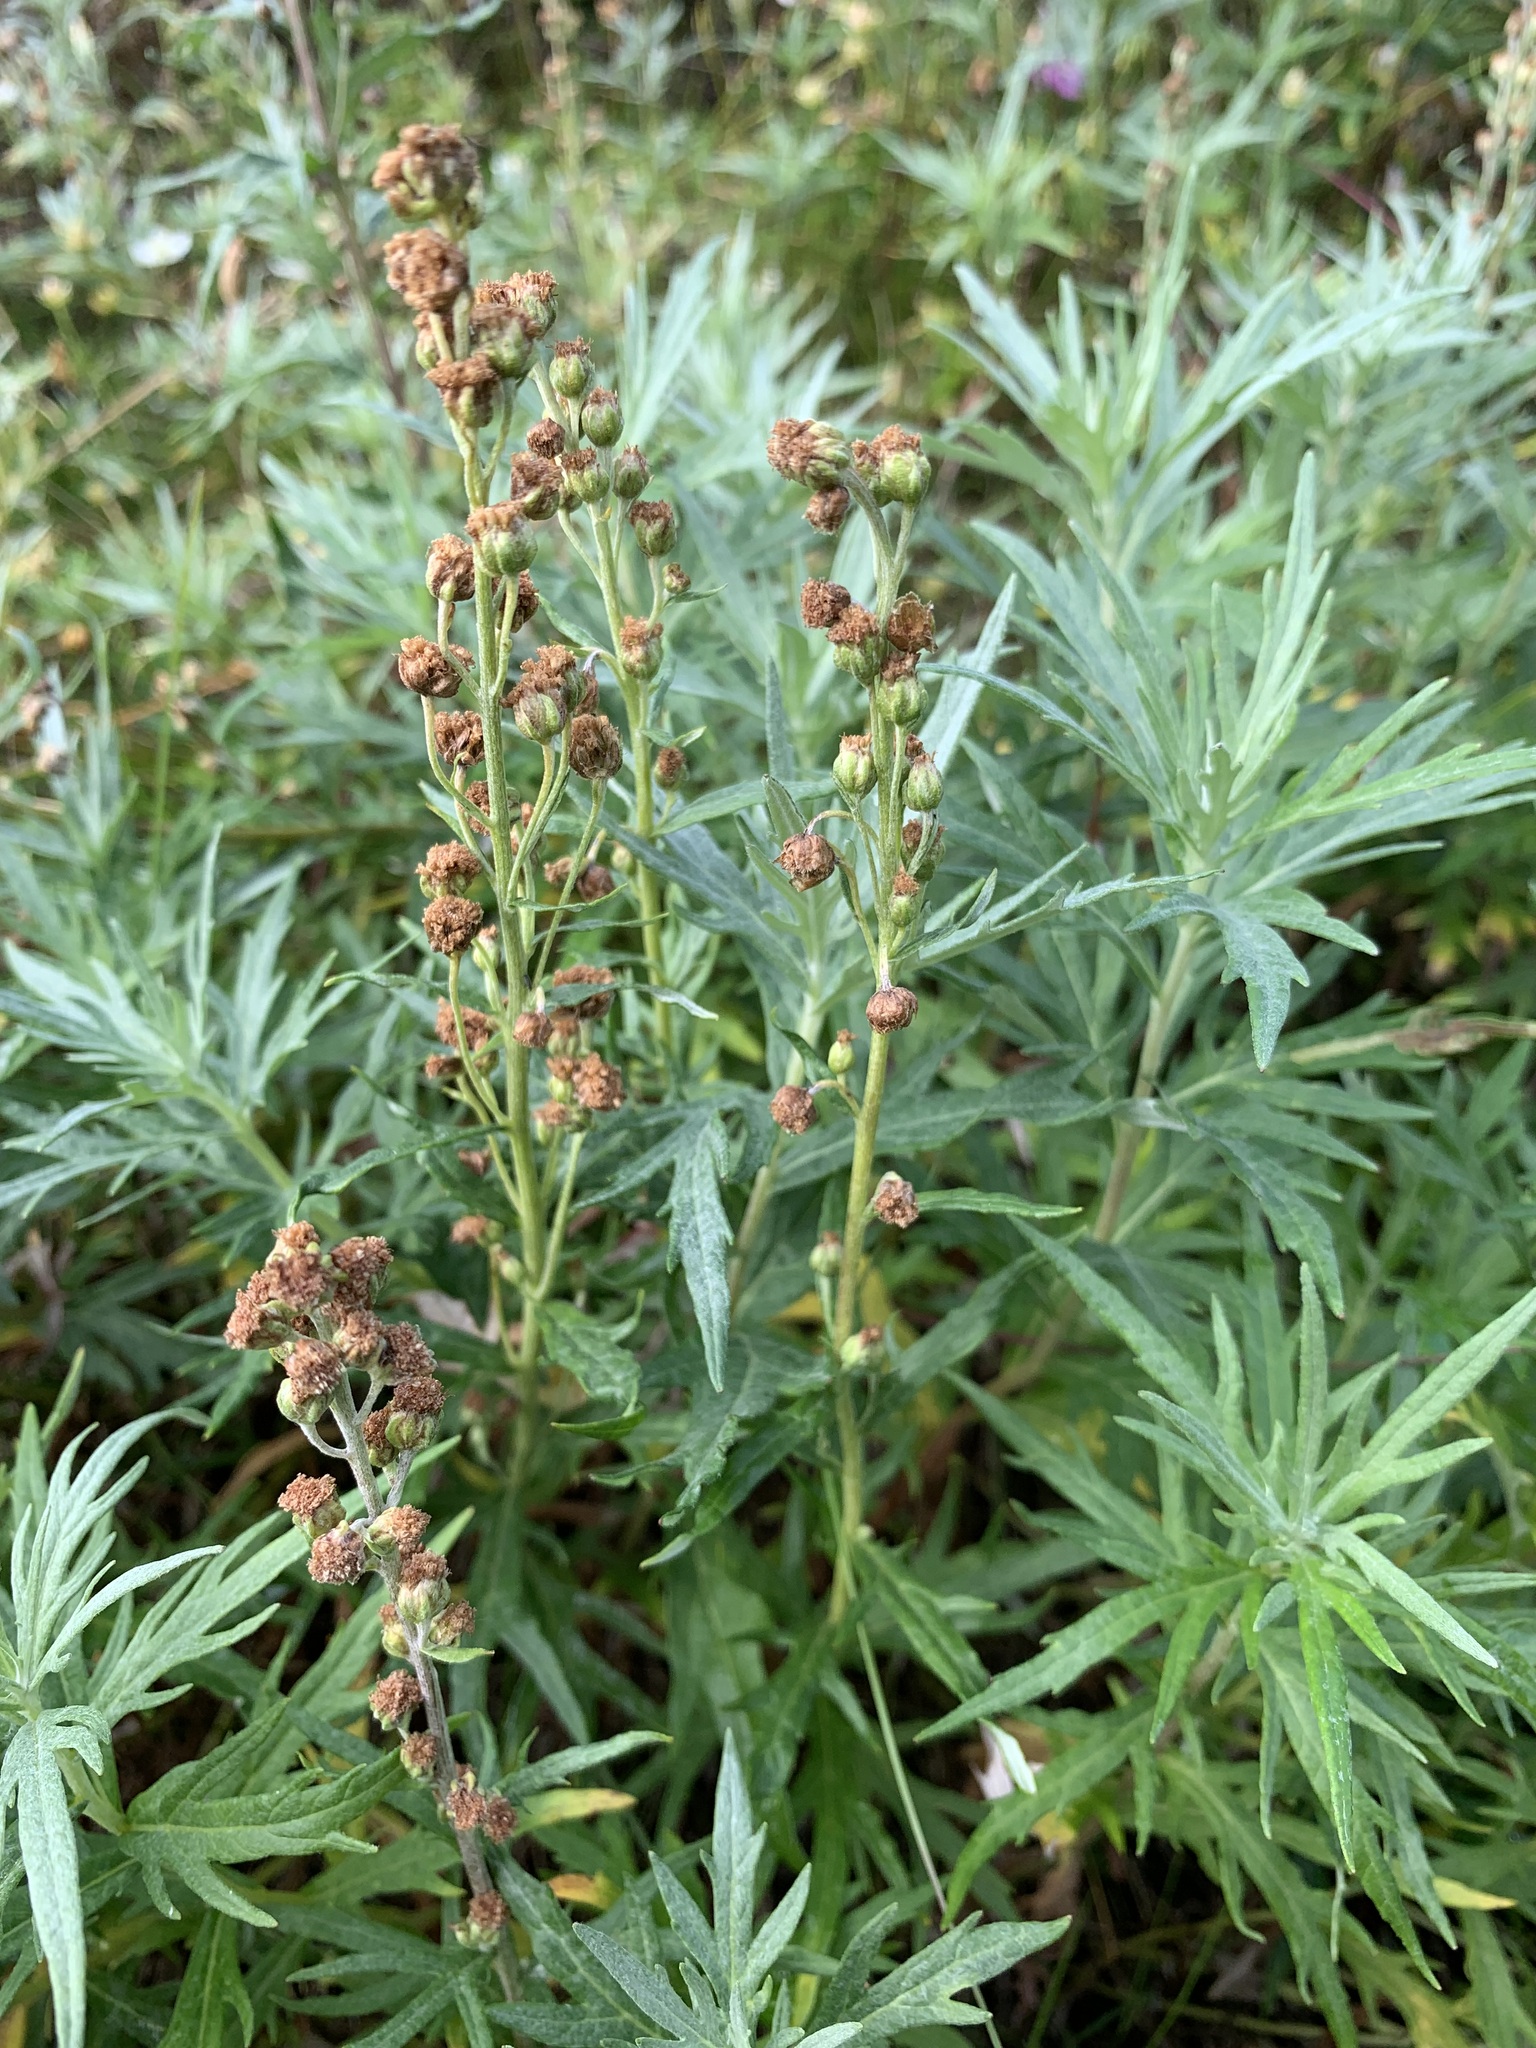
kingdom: Plantae
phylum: Tracheophyta
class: Magnoliopsida
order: Asterales
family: Asteraceae
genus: Artemisia
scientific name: Artemisia tilesii
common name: Aleutian mugwort
